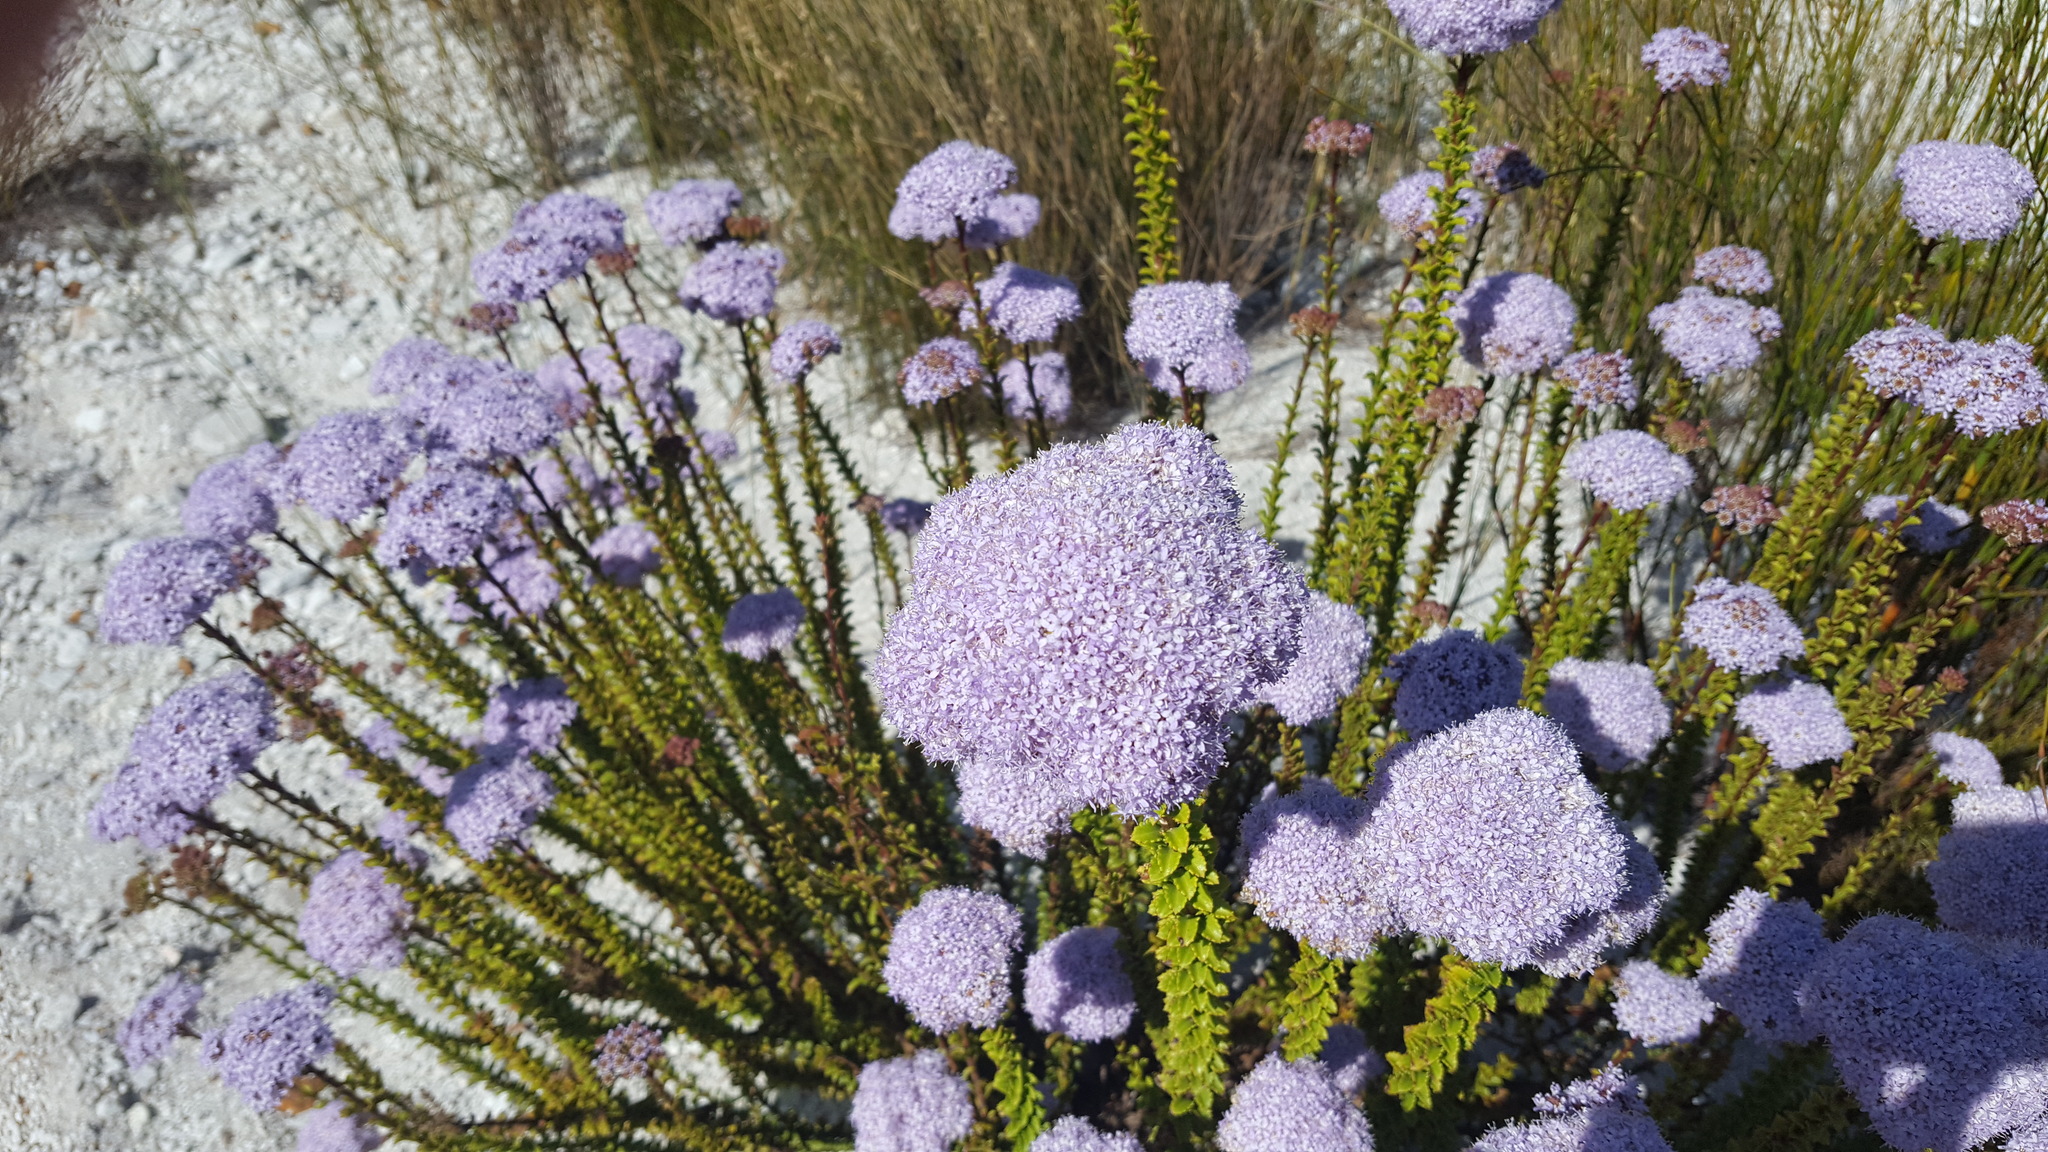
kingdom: Plantae
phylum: Tracheophyta
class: Magnoliopsida
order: Lamiales
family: Scrophulariaceae
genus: Pseudoselago
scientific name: Pseudoselago serrata
